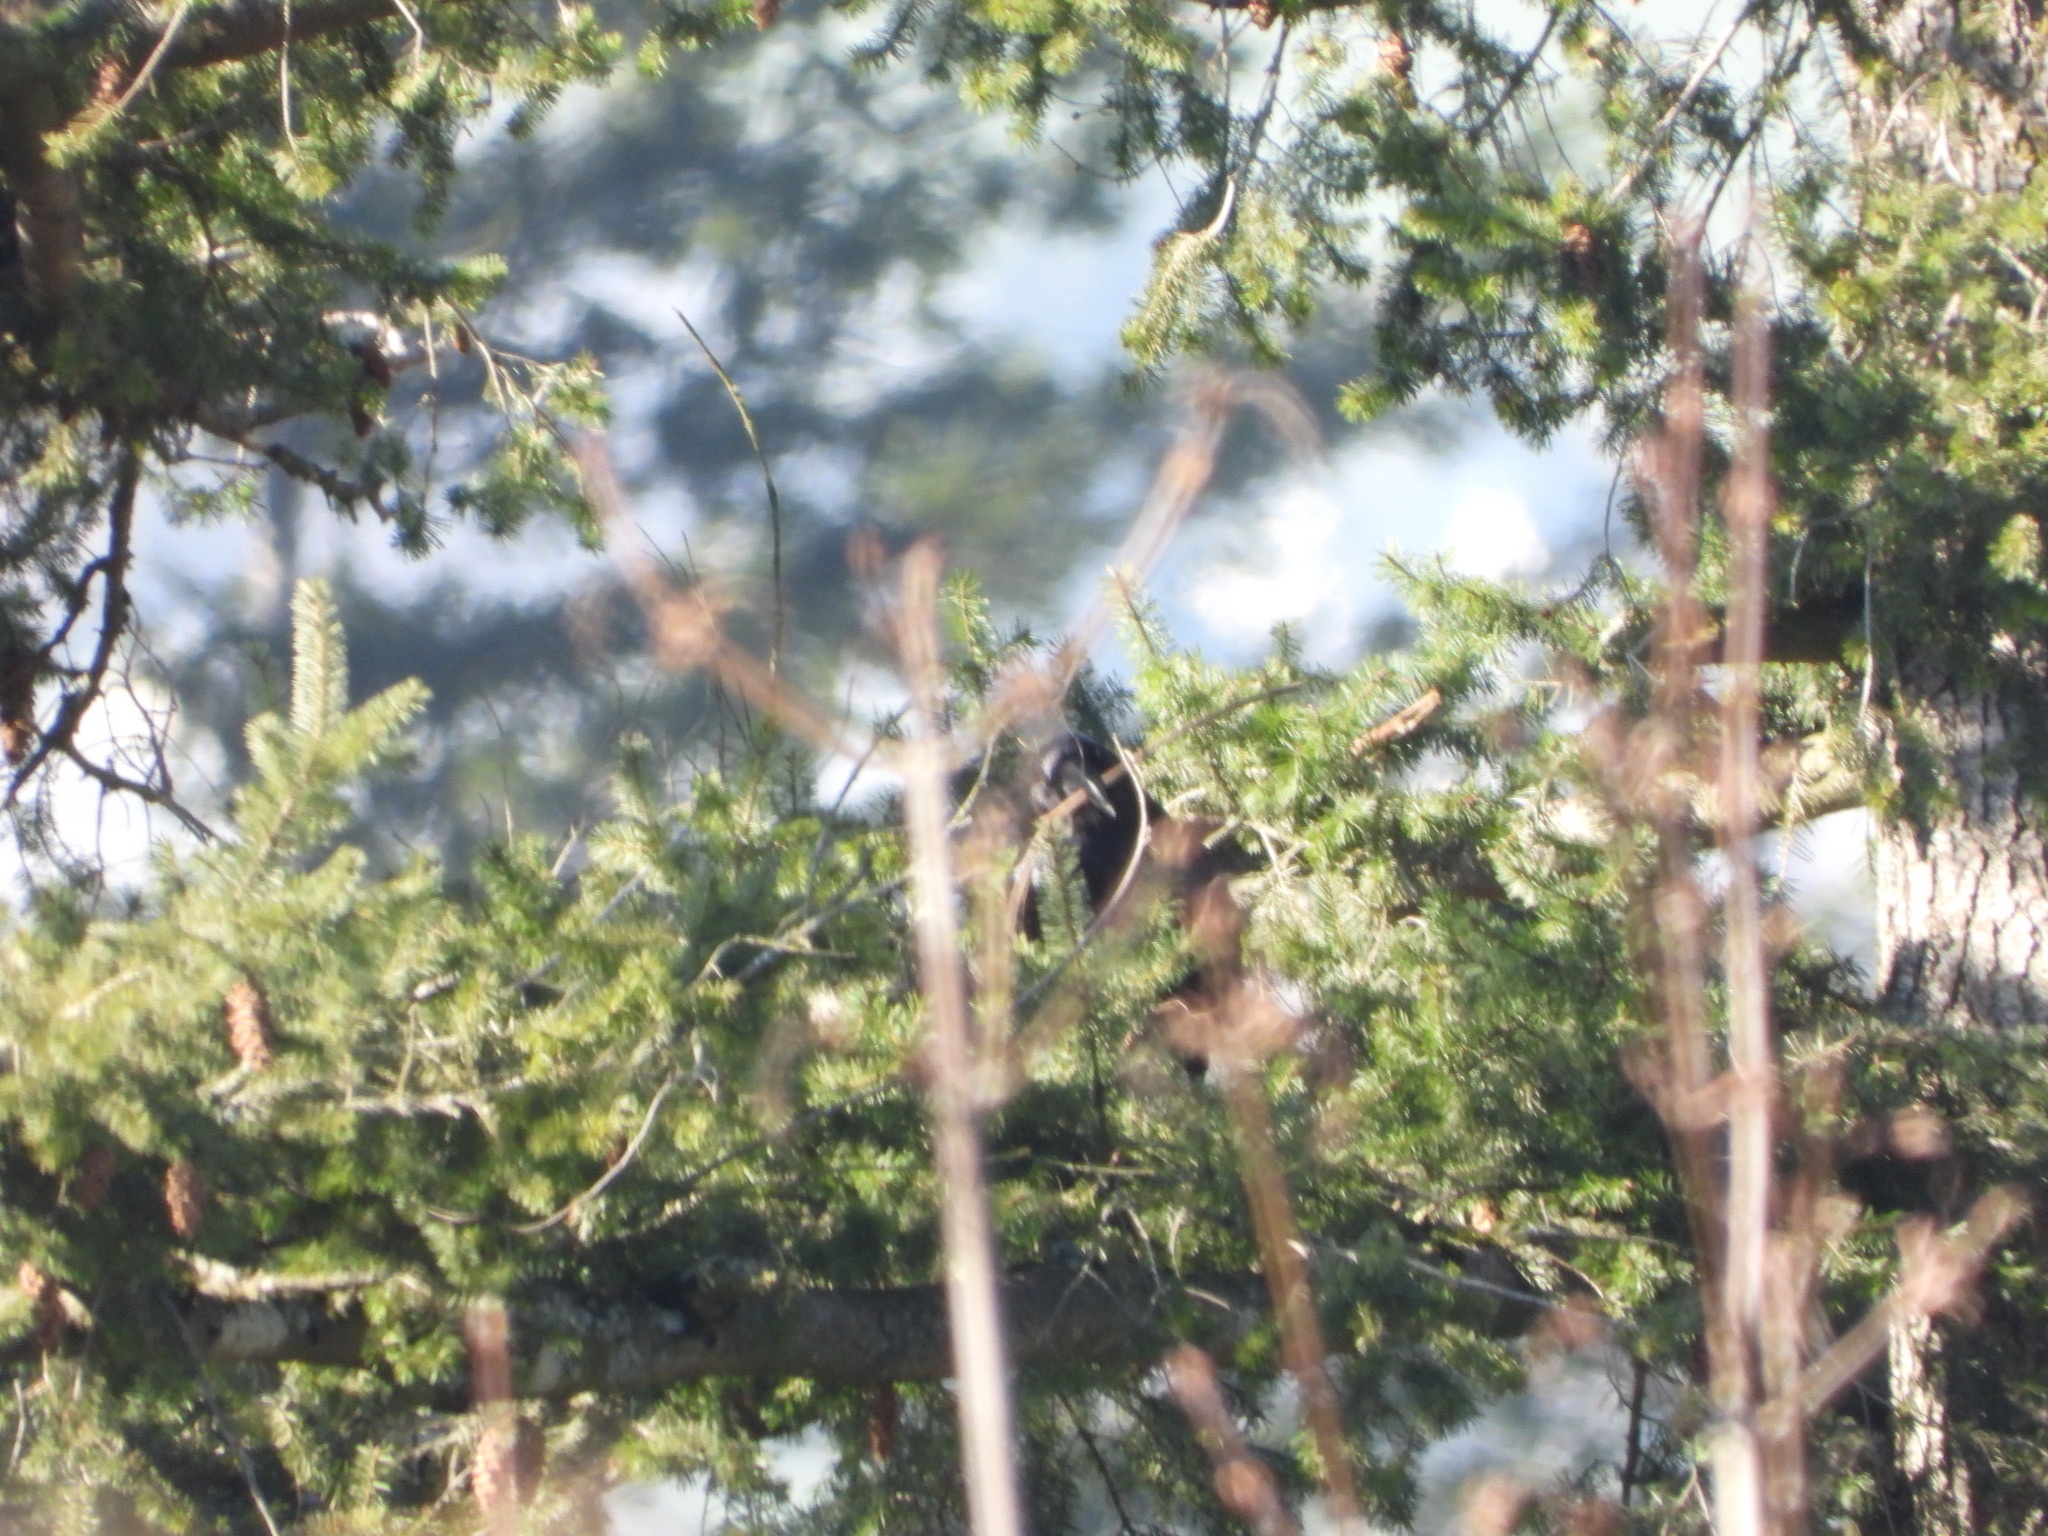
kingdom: Animalia
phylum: Chordata
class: Aves
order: Passeriformes
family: Corvidae
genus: Corvus
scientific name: Corvus corax
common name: Common raven
